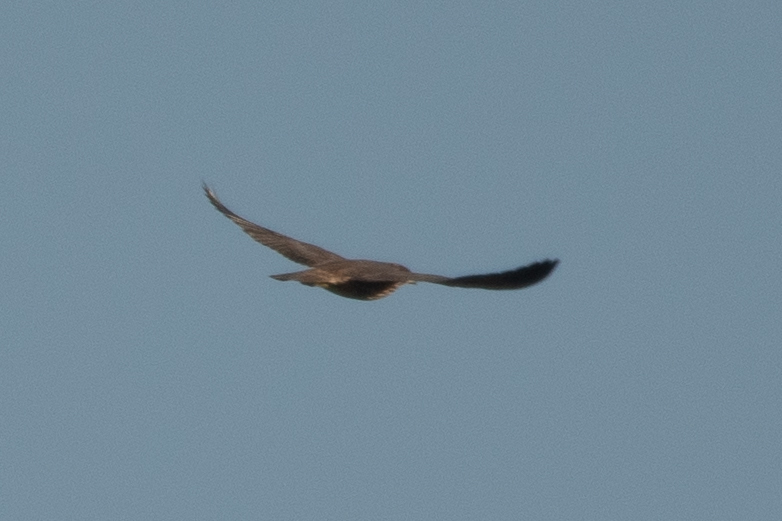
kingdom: Animalia
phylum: Chordata
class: Aves
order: Falconiformes
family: Falconidae
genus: Falco
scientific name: Falco peregrinus
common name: Peregrine falcon
